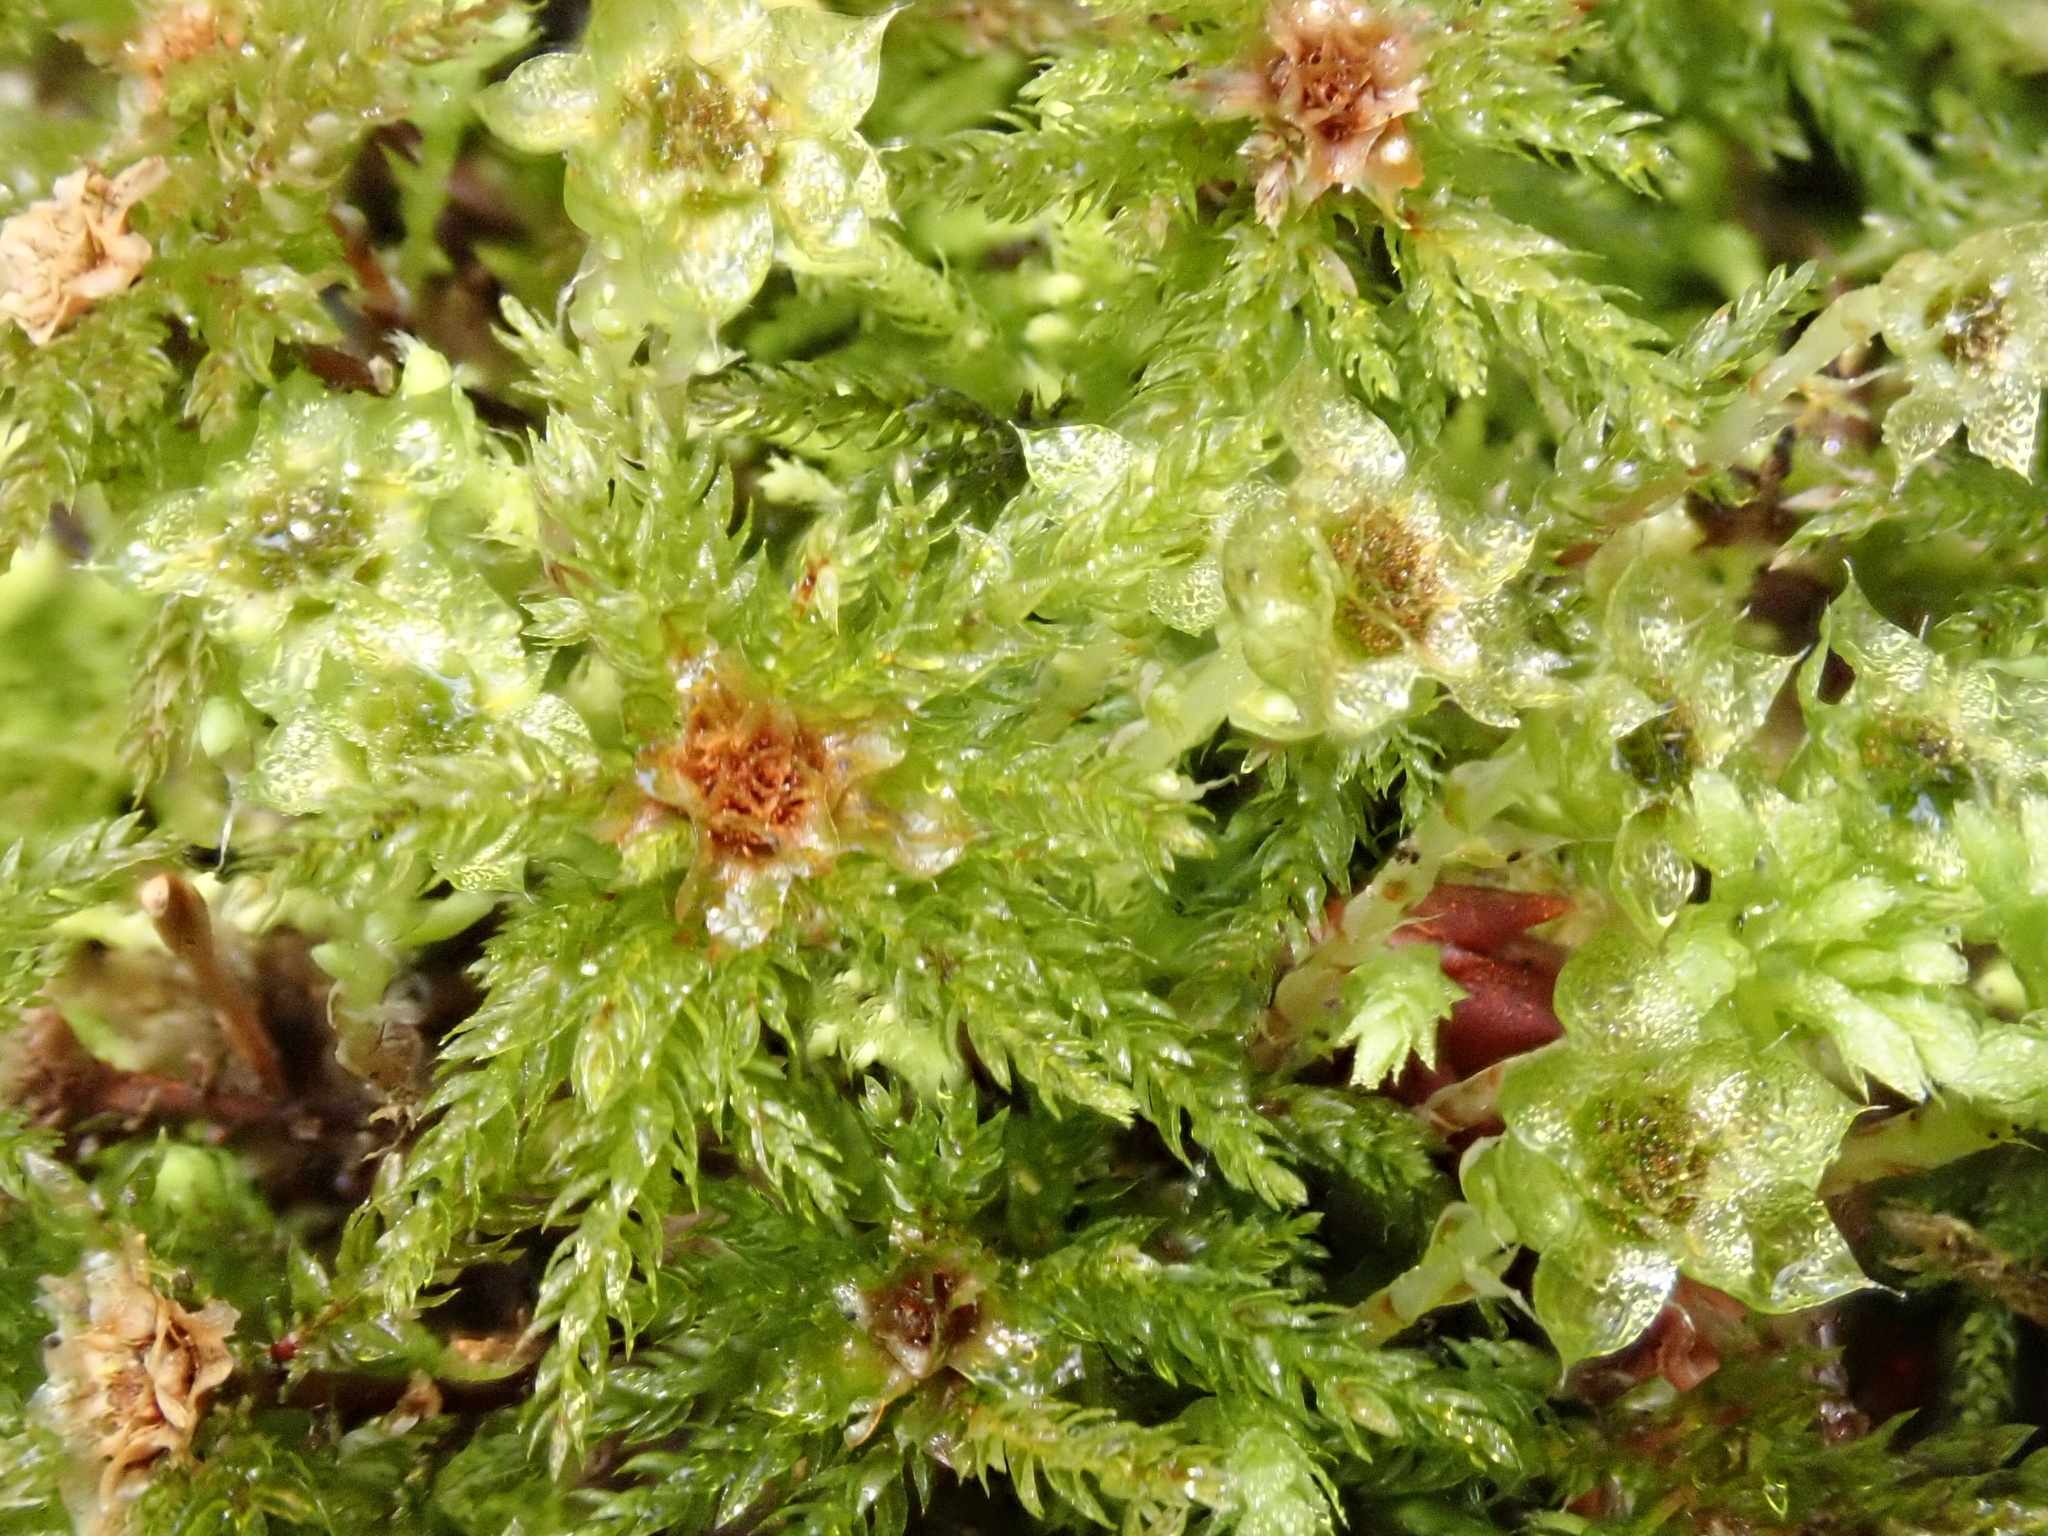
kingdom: Plantae
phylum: Bryophyta
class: Bryopsida
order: Bryales
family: Mniaceae
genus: Leucolepis
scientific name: Leucolepis acanthoneura
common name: Leucolepis umbrella moss
